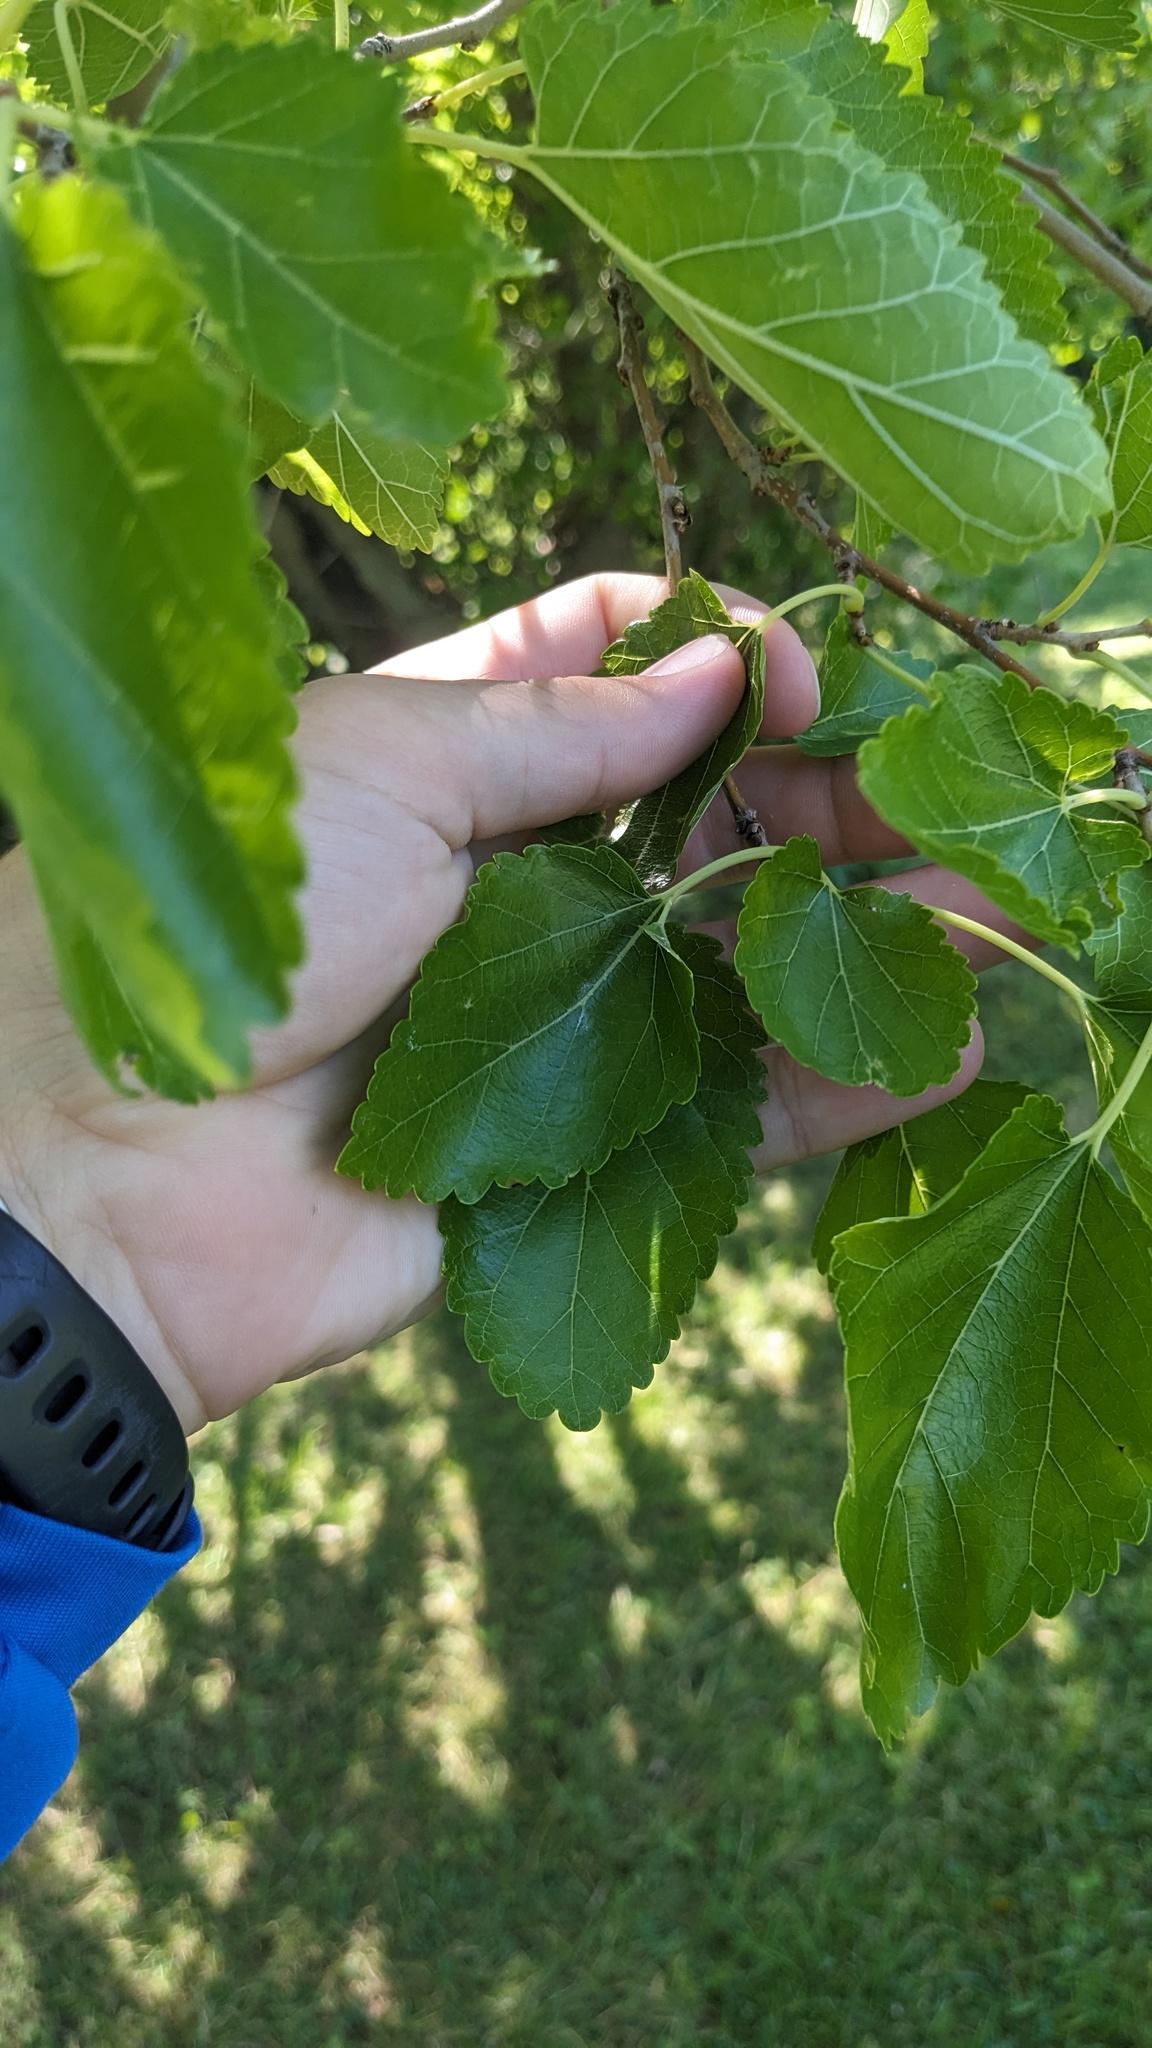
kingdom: Plantae
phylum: Tracheophyta
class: Magnoliopsida
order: Rosales
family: Moraceae
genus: Morus
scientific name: Morus alba
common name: White mulberry
